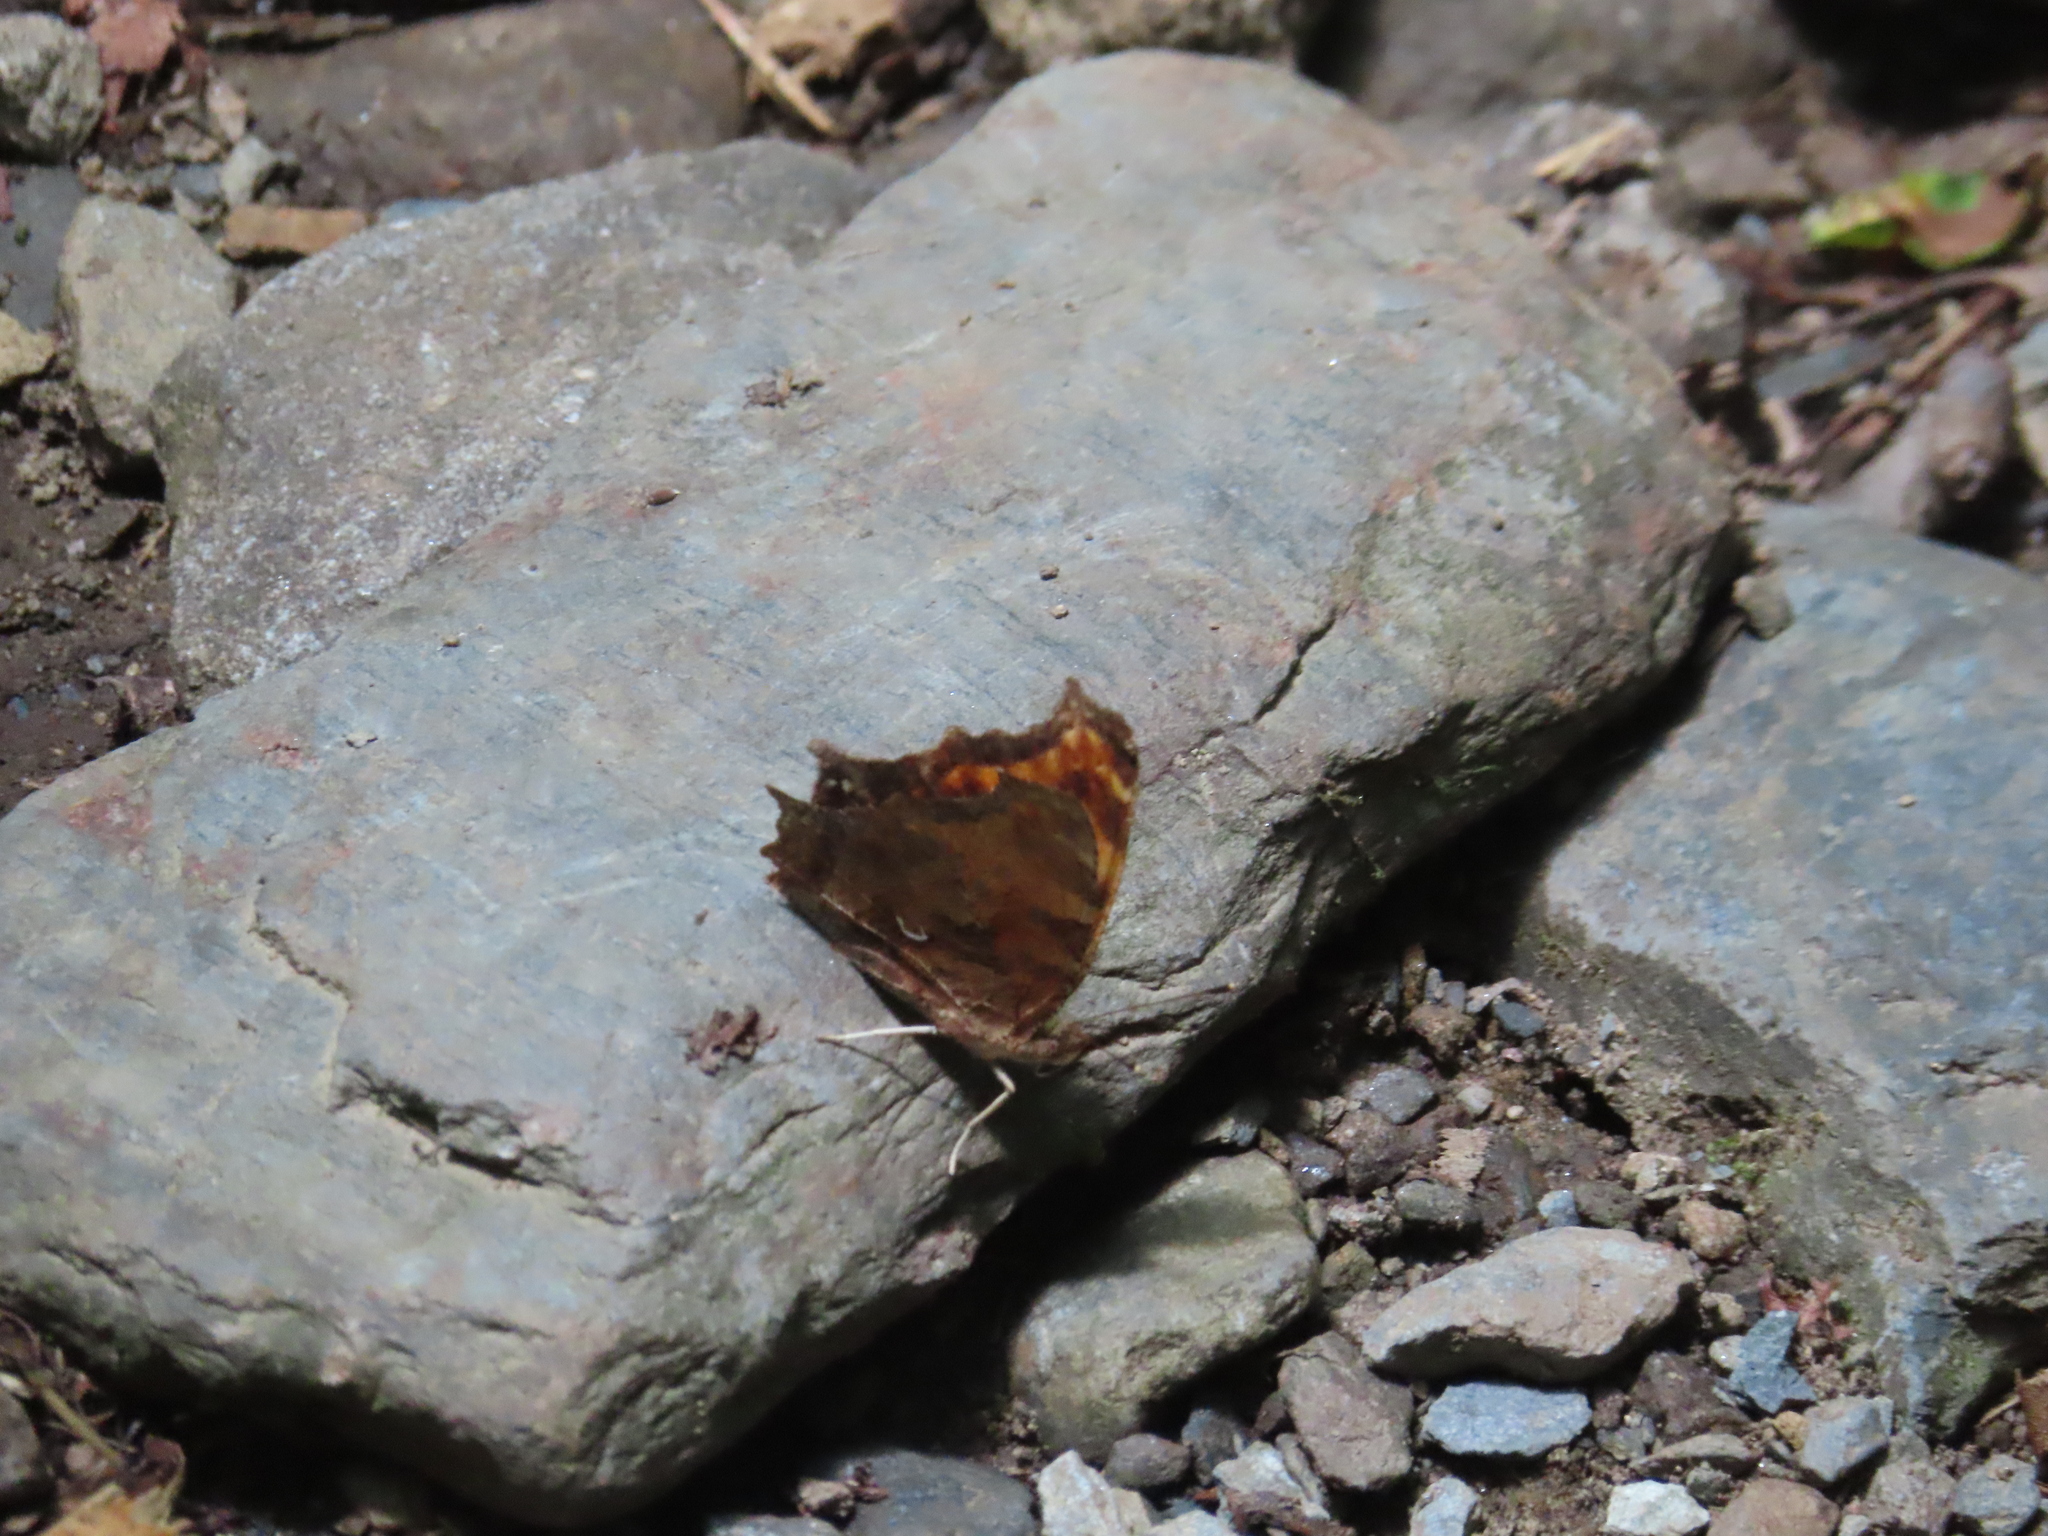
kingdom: Animalia
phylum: Arthropoda
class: Insecta
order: Lepidoptera
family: Nymphalidae
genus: Polygonia
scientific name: Polygonia comma
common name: Eastern comma
